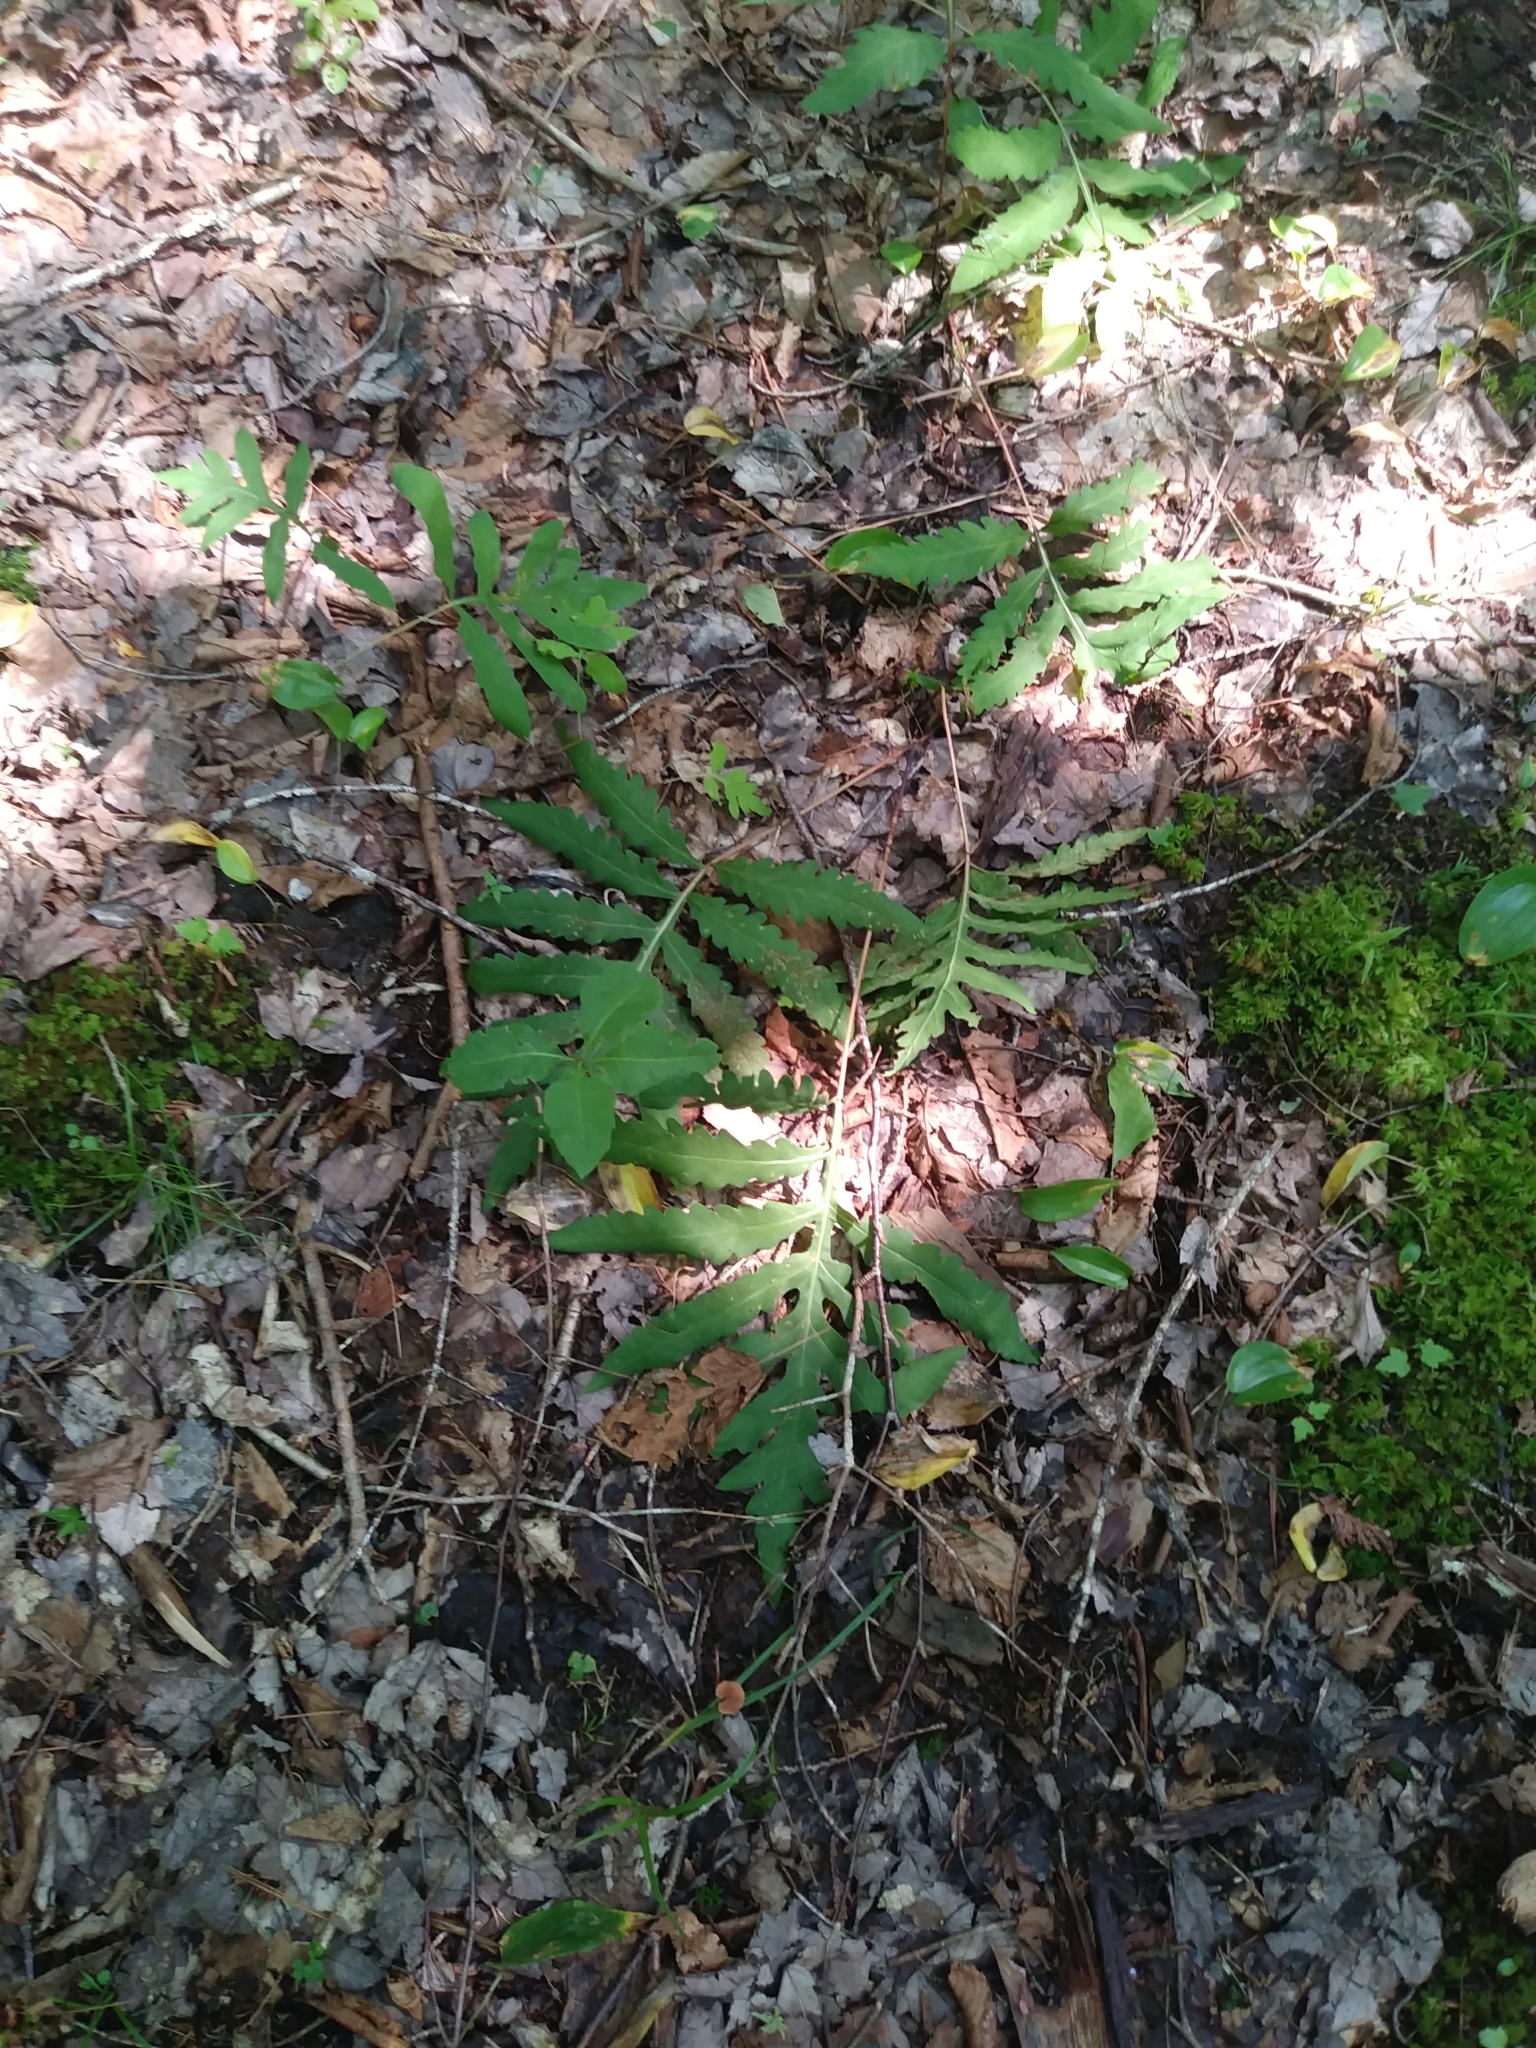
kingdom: Plantae
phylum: Tracheophyta
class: Polypodiopsida
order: Polypodiales
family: Onocleaceae
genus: Onoclea
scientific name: Onoclea sensibilis
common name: Sensitive fern
